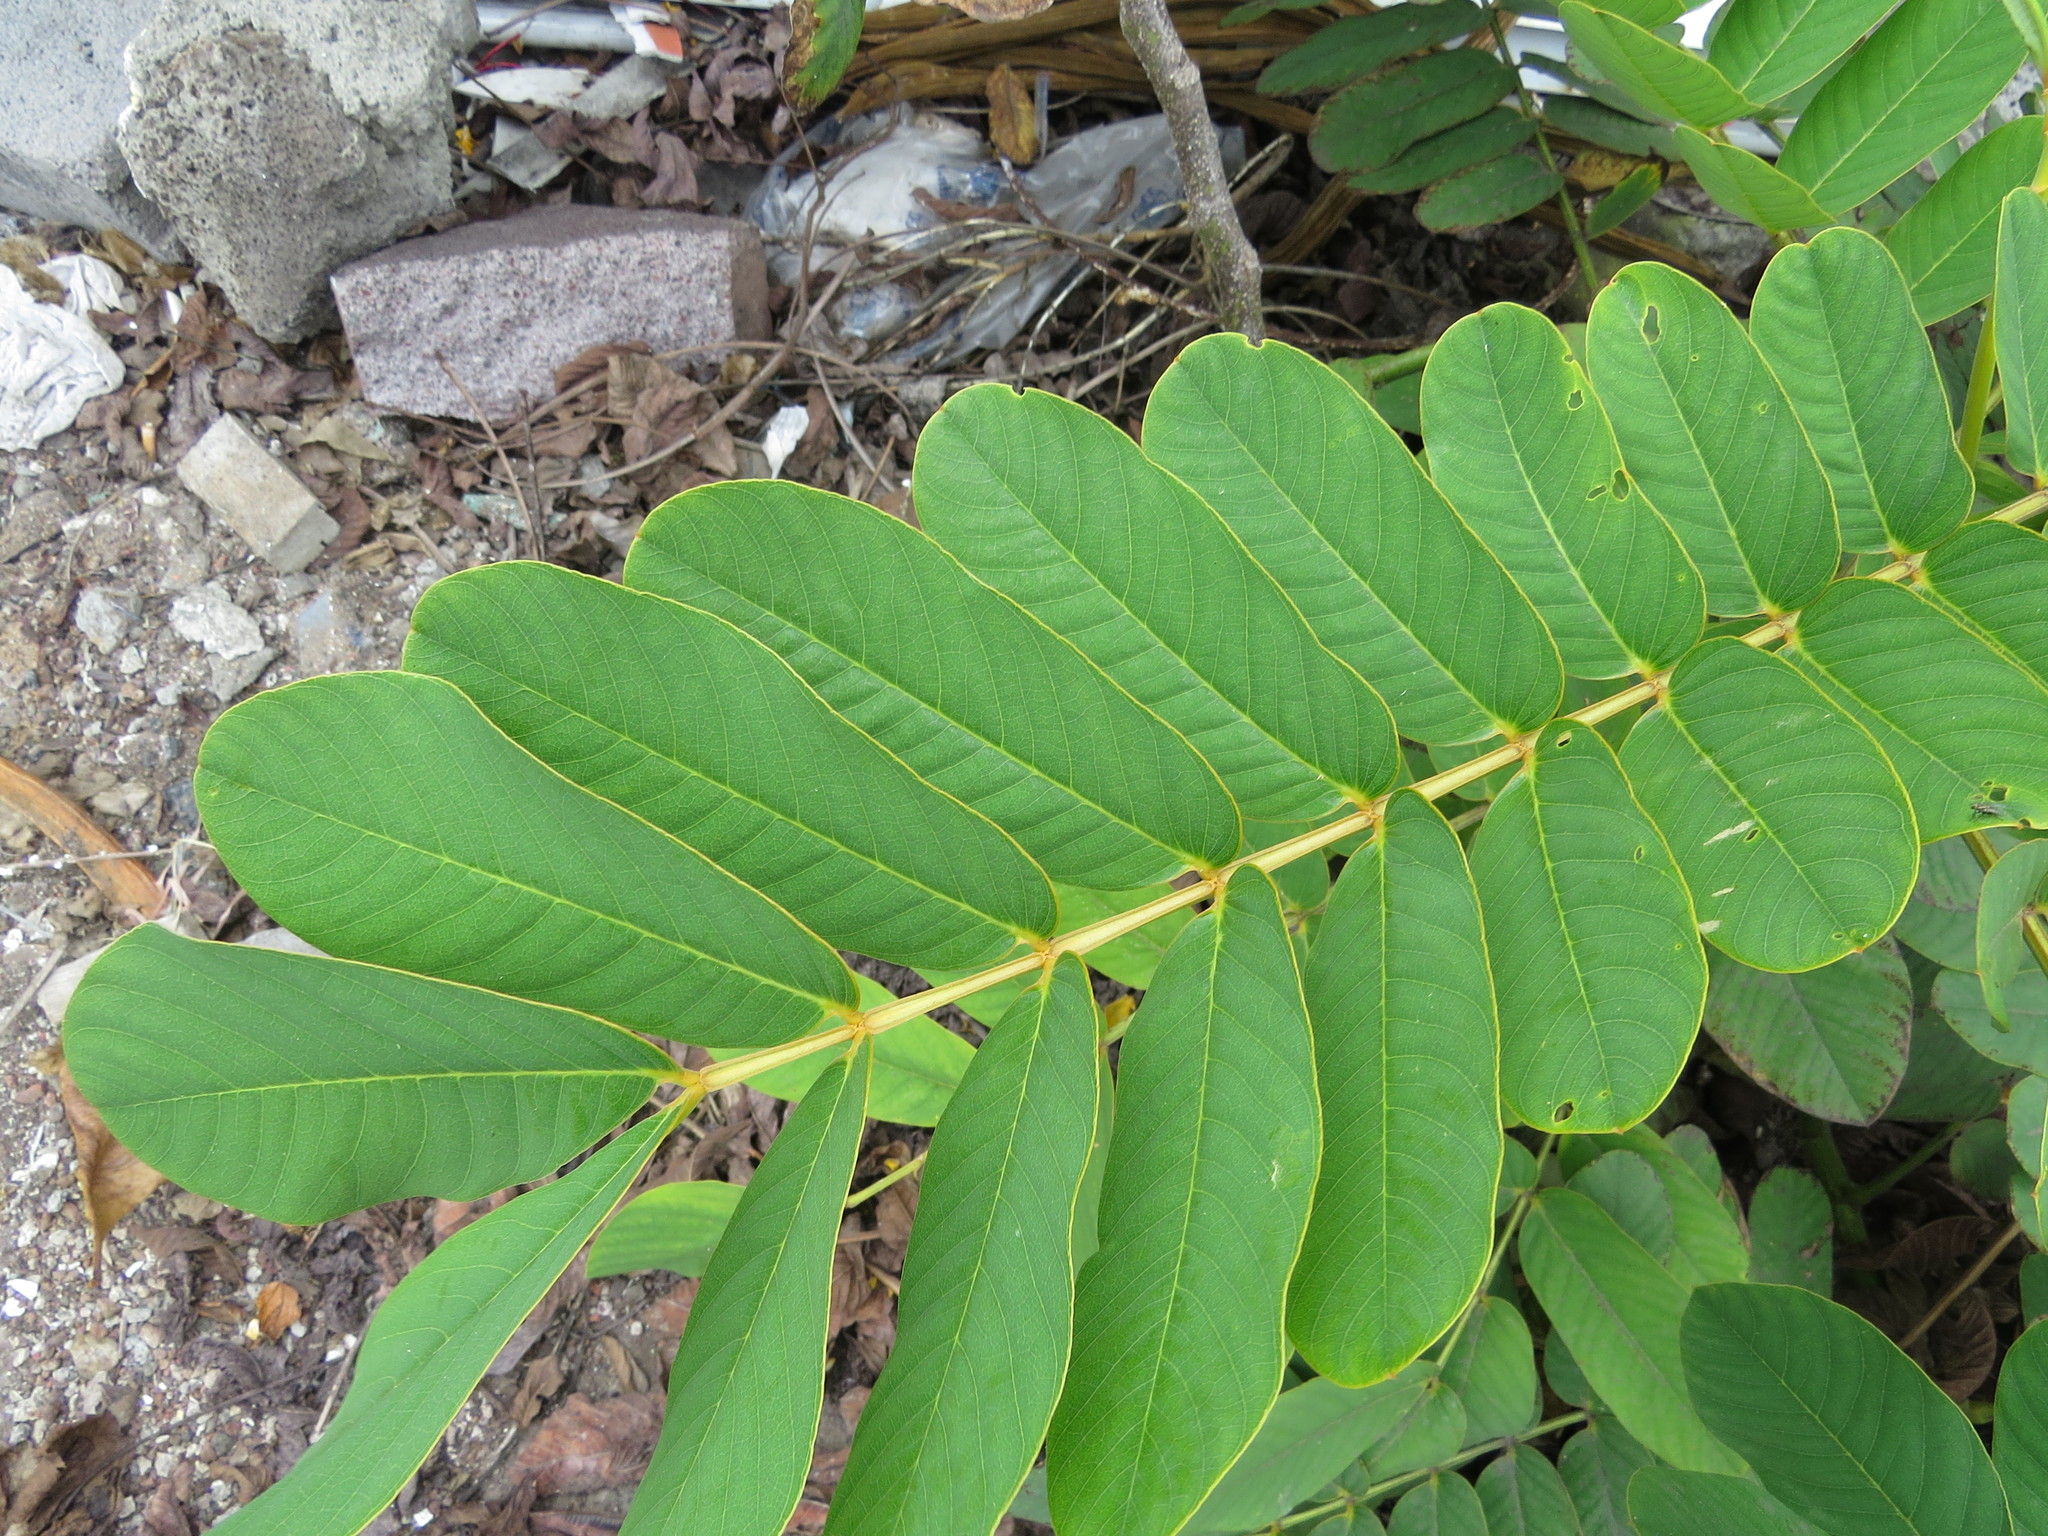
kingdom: Plantae
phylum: Tracheophyta
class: Magnoliopsida
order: Fabales
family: Fabaceae
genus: Senna
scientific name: Senna alata
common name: Emperor's candlesticks
